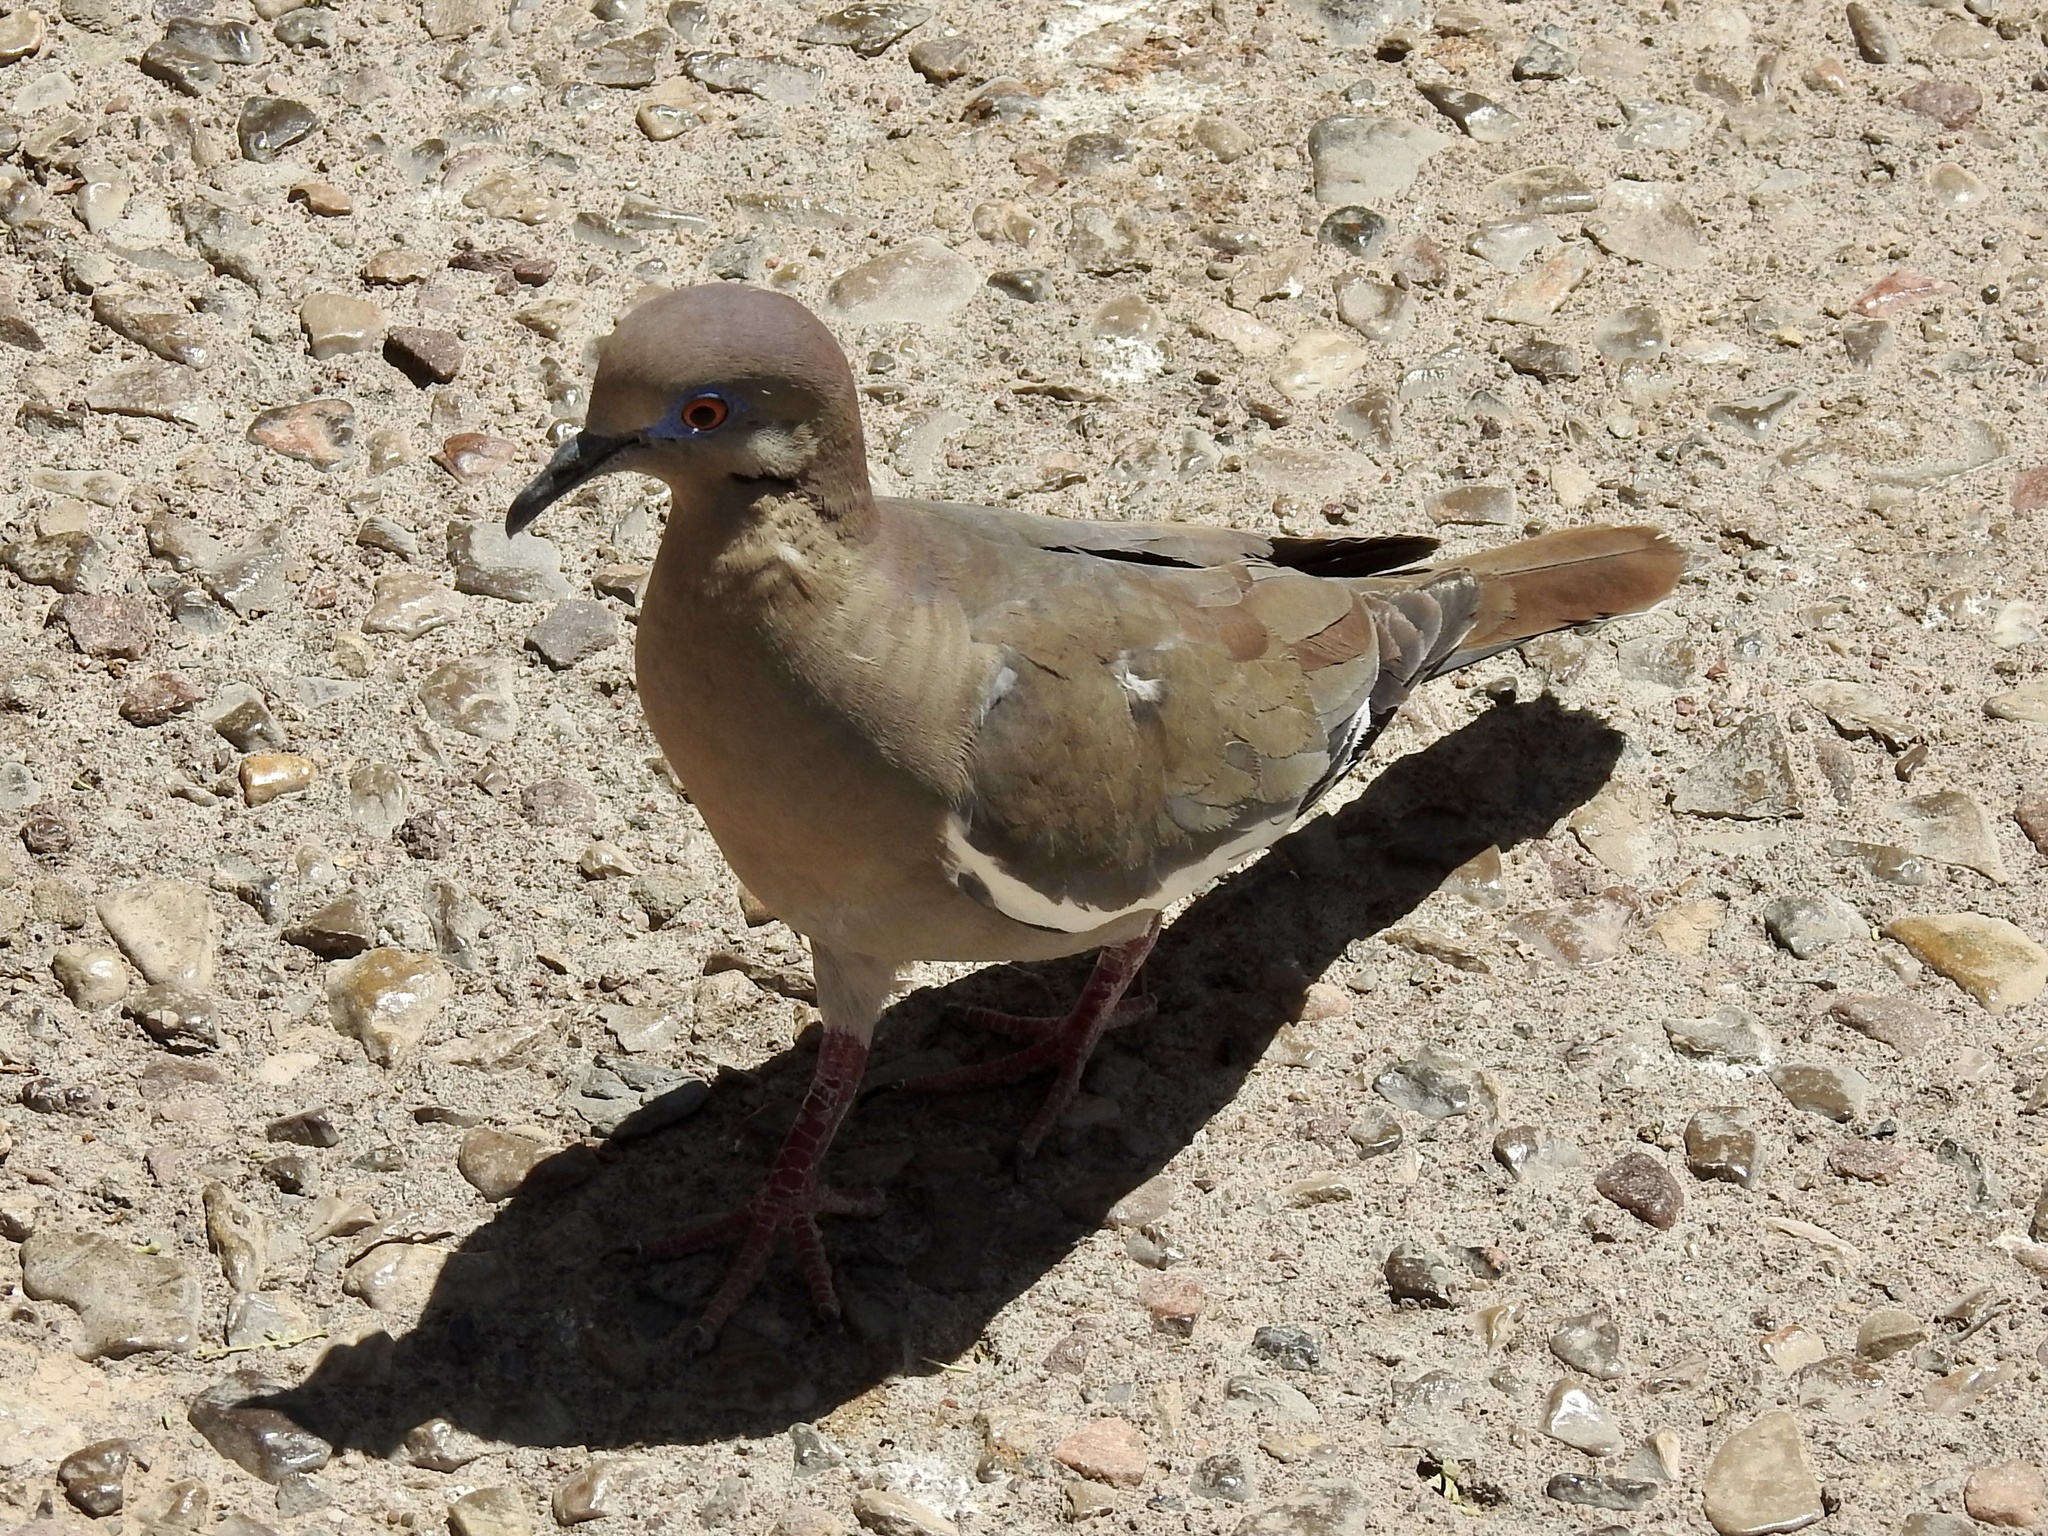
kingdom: Animalia
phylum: Chordata
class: Aves
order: Columbiformes
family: Columbidae
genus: Zenaida
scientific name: Zenaida asiatica
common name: White-winged dove
